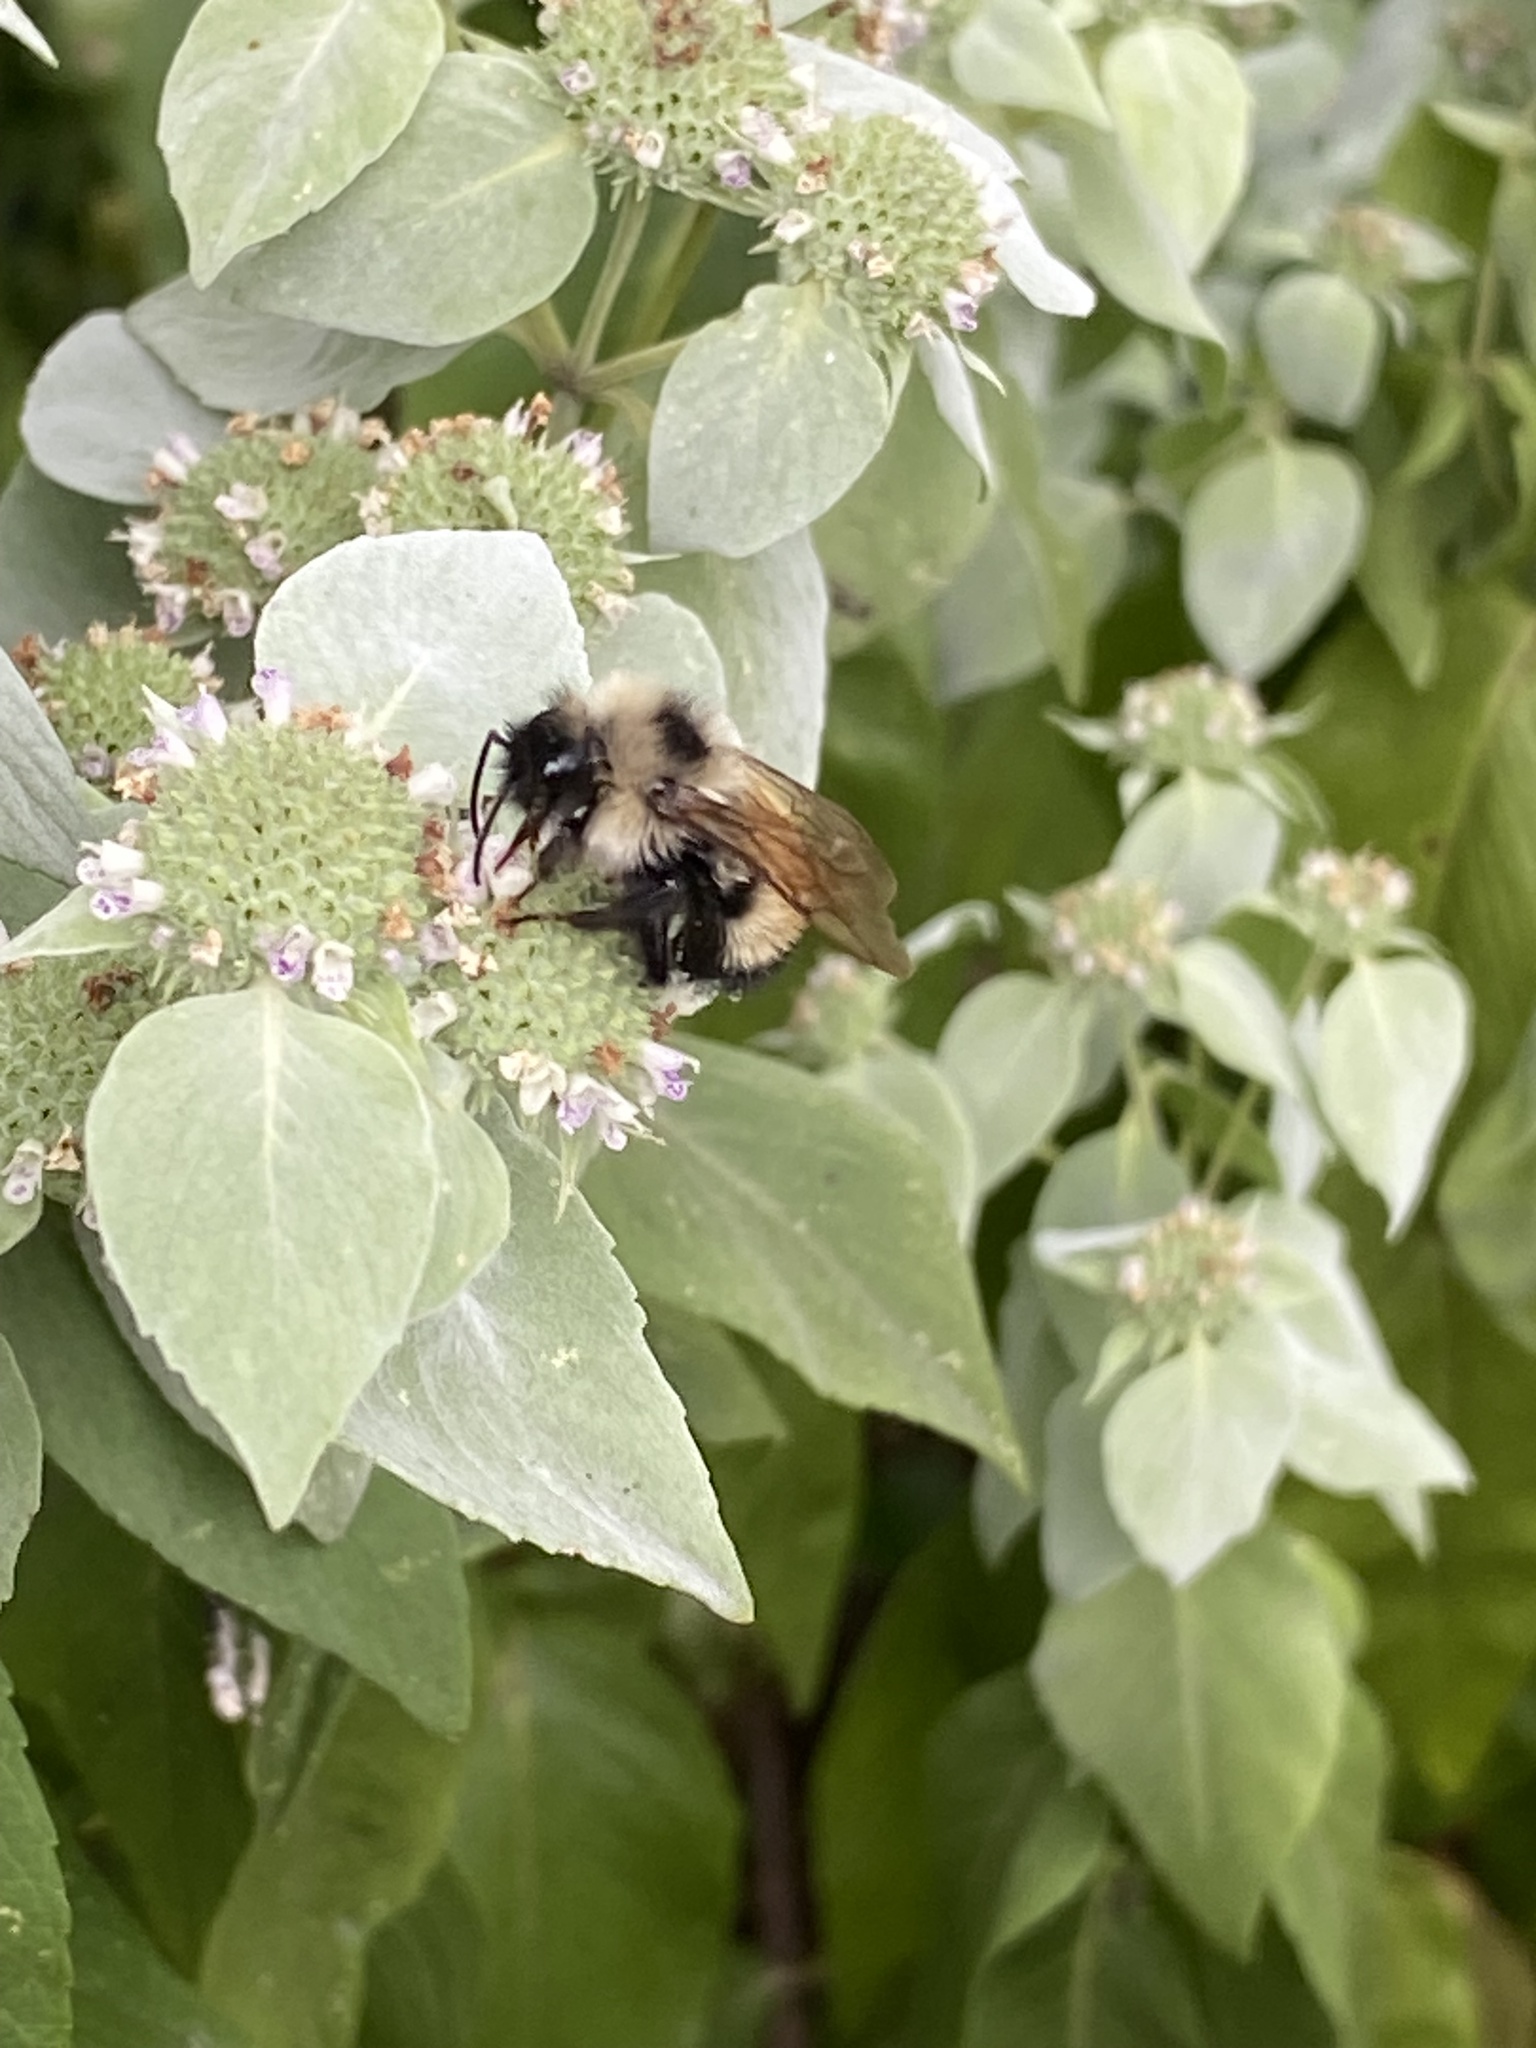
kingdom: Animalia
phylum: Arthropoda
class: Insecta
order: Hymenoptera
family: Apidae
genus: Bombus
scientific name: Bombus citrinus
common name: Lemon cuckoo bumble bee
